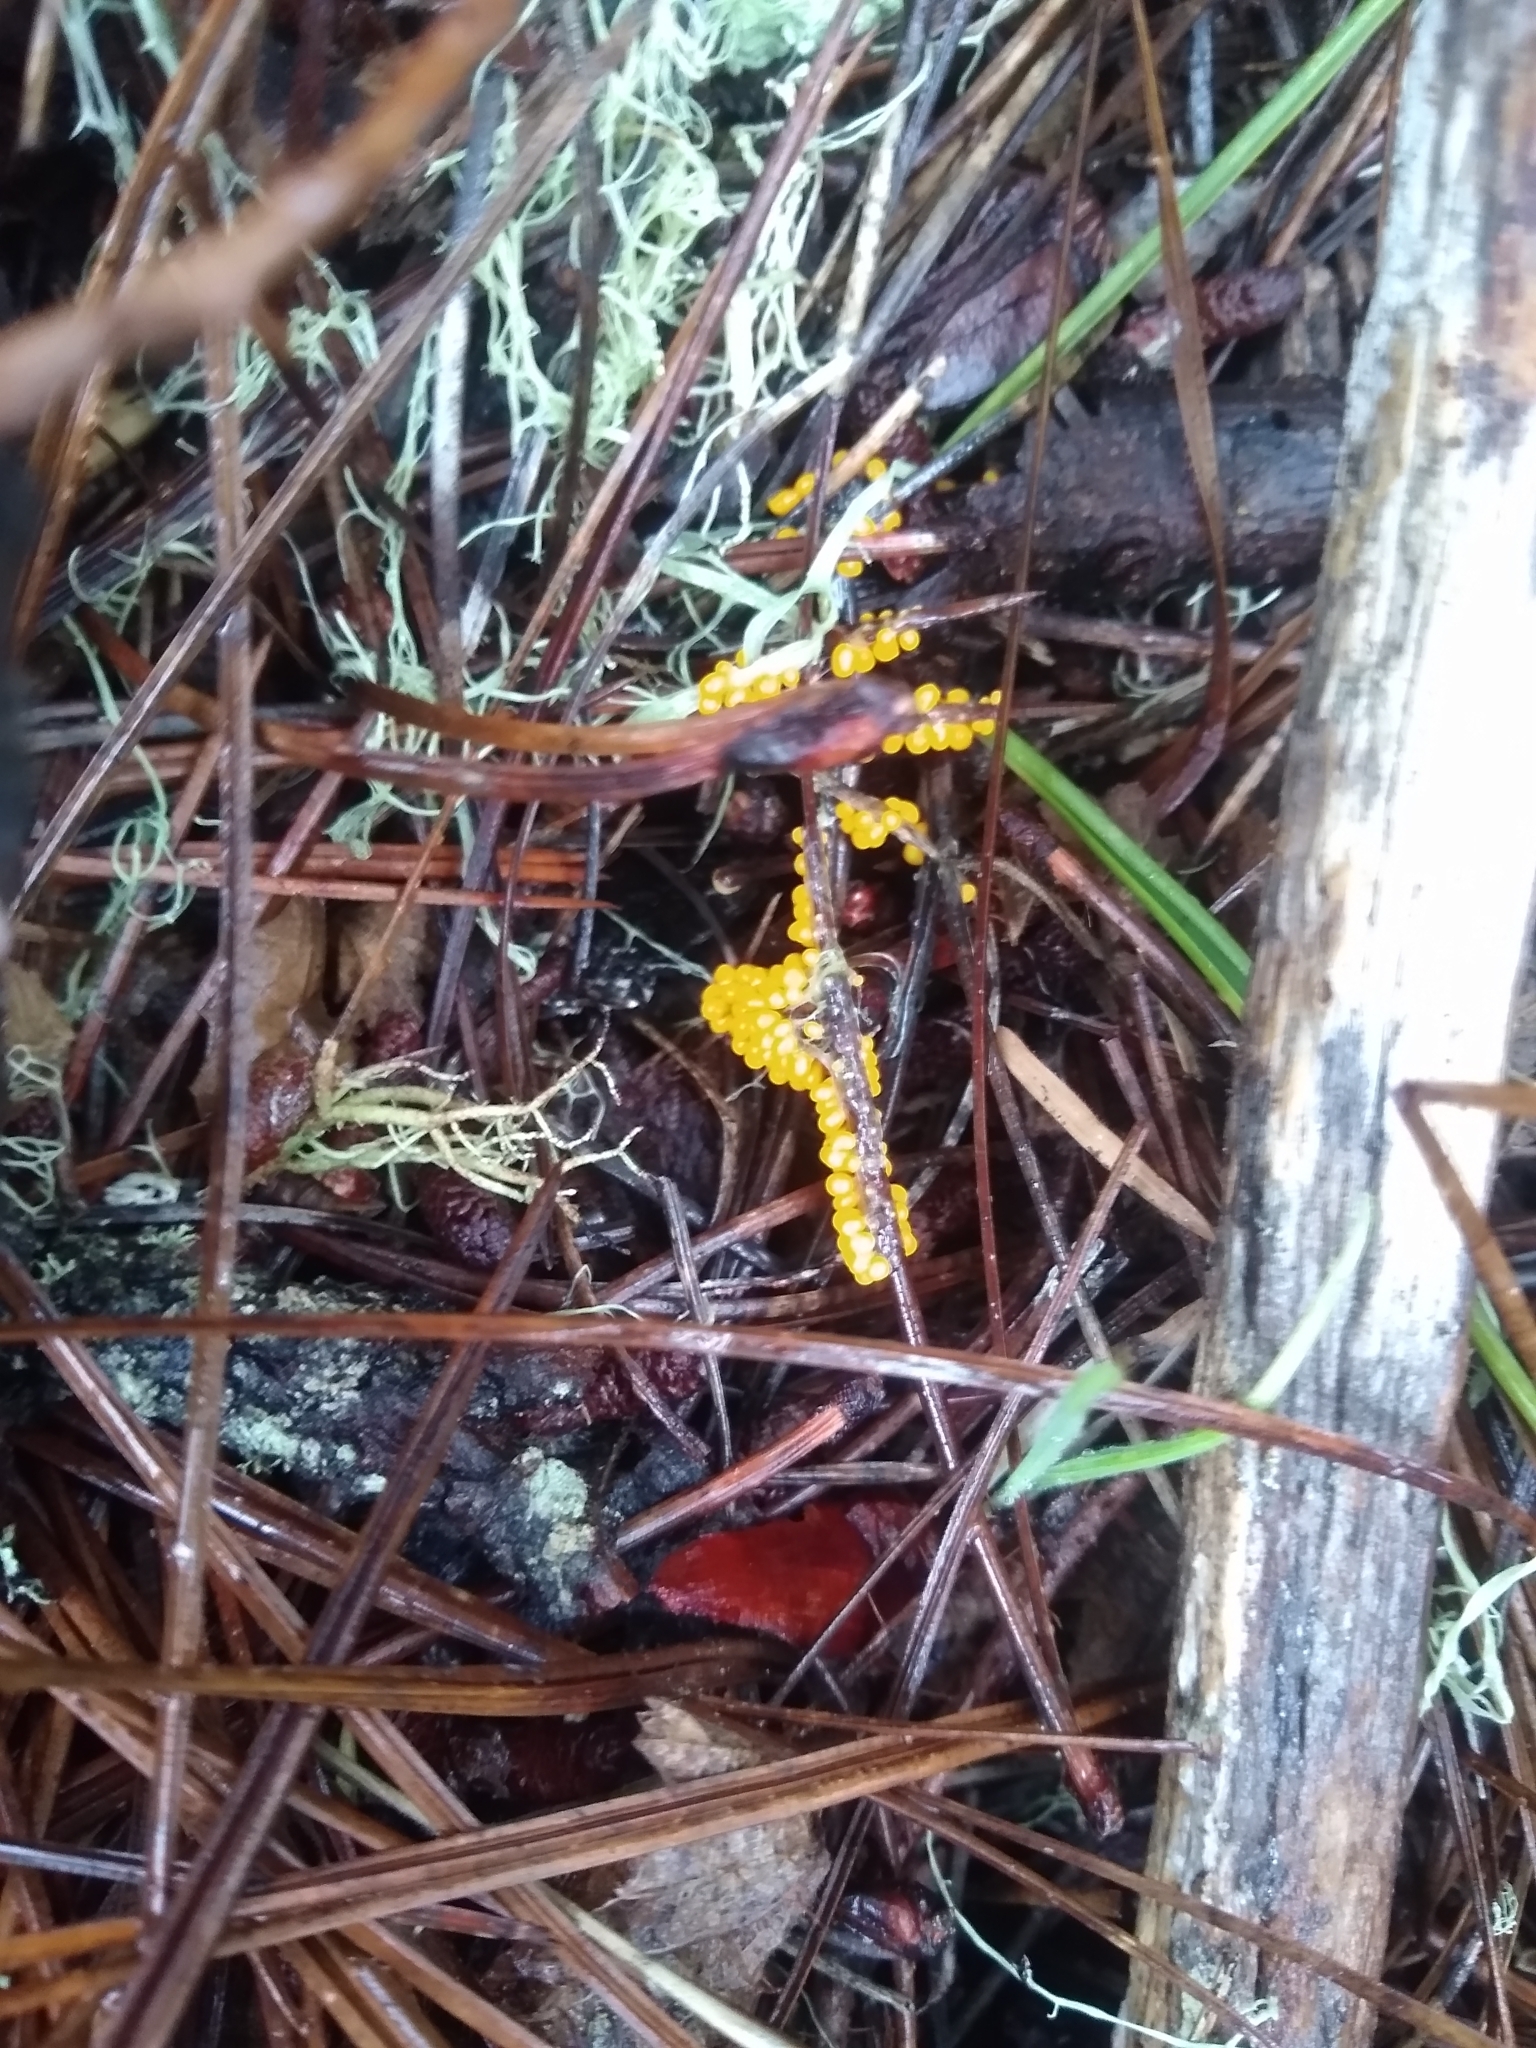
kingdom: Protozoa
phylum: Mycetozoa
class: Myxomycetes
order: Physarales
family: Physaraceae
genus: Leocarpus
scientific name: Leocarpus fragilis
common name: Insect-egg slime
